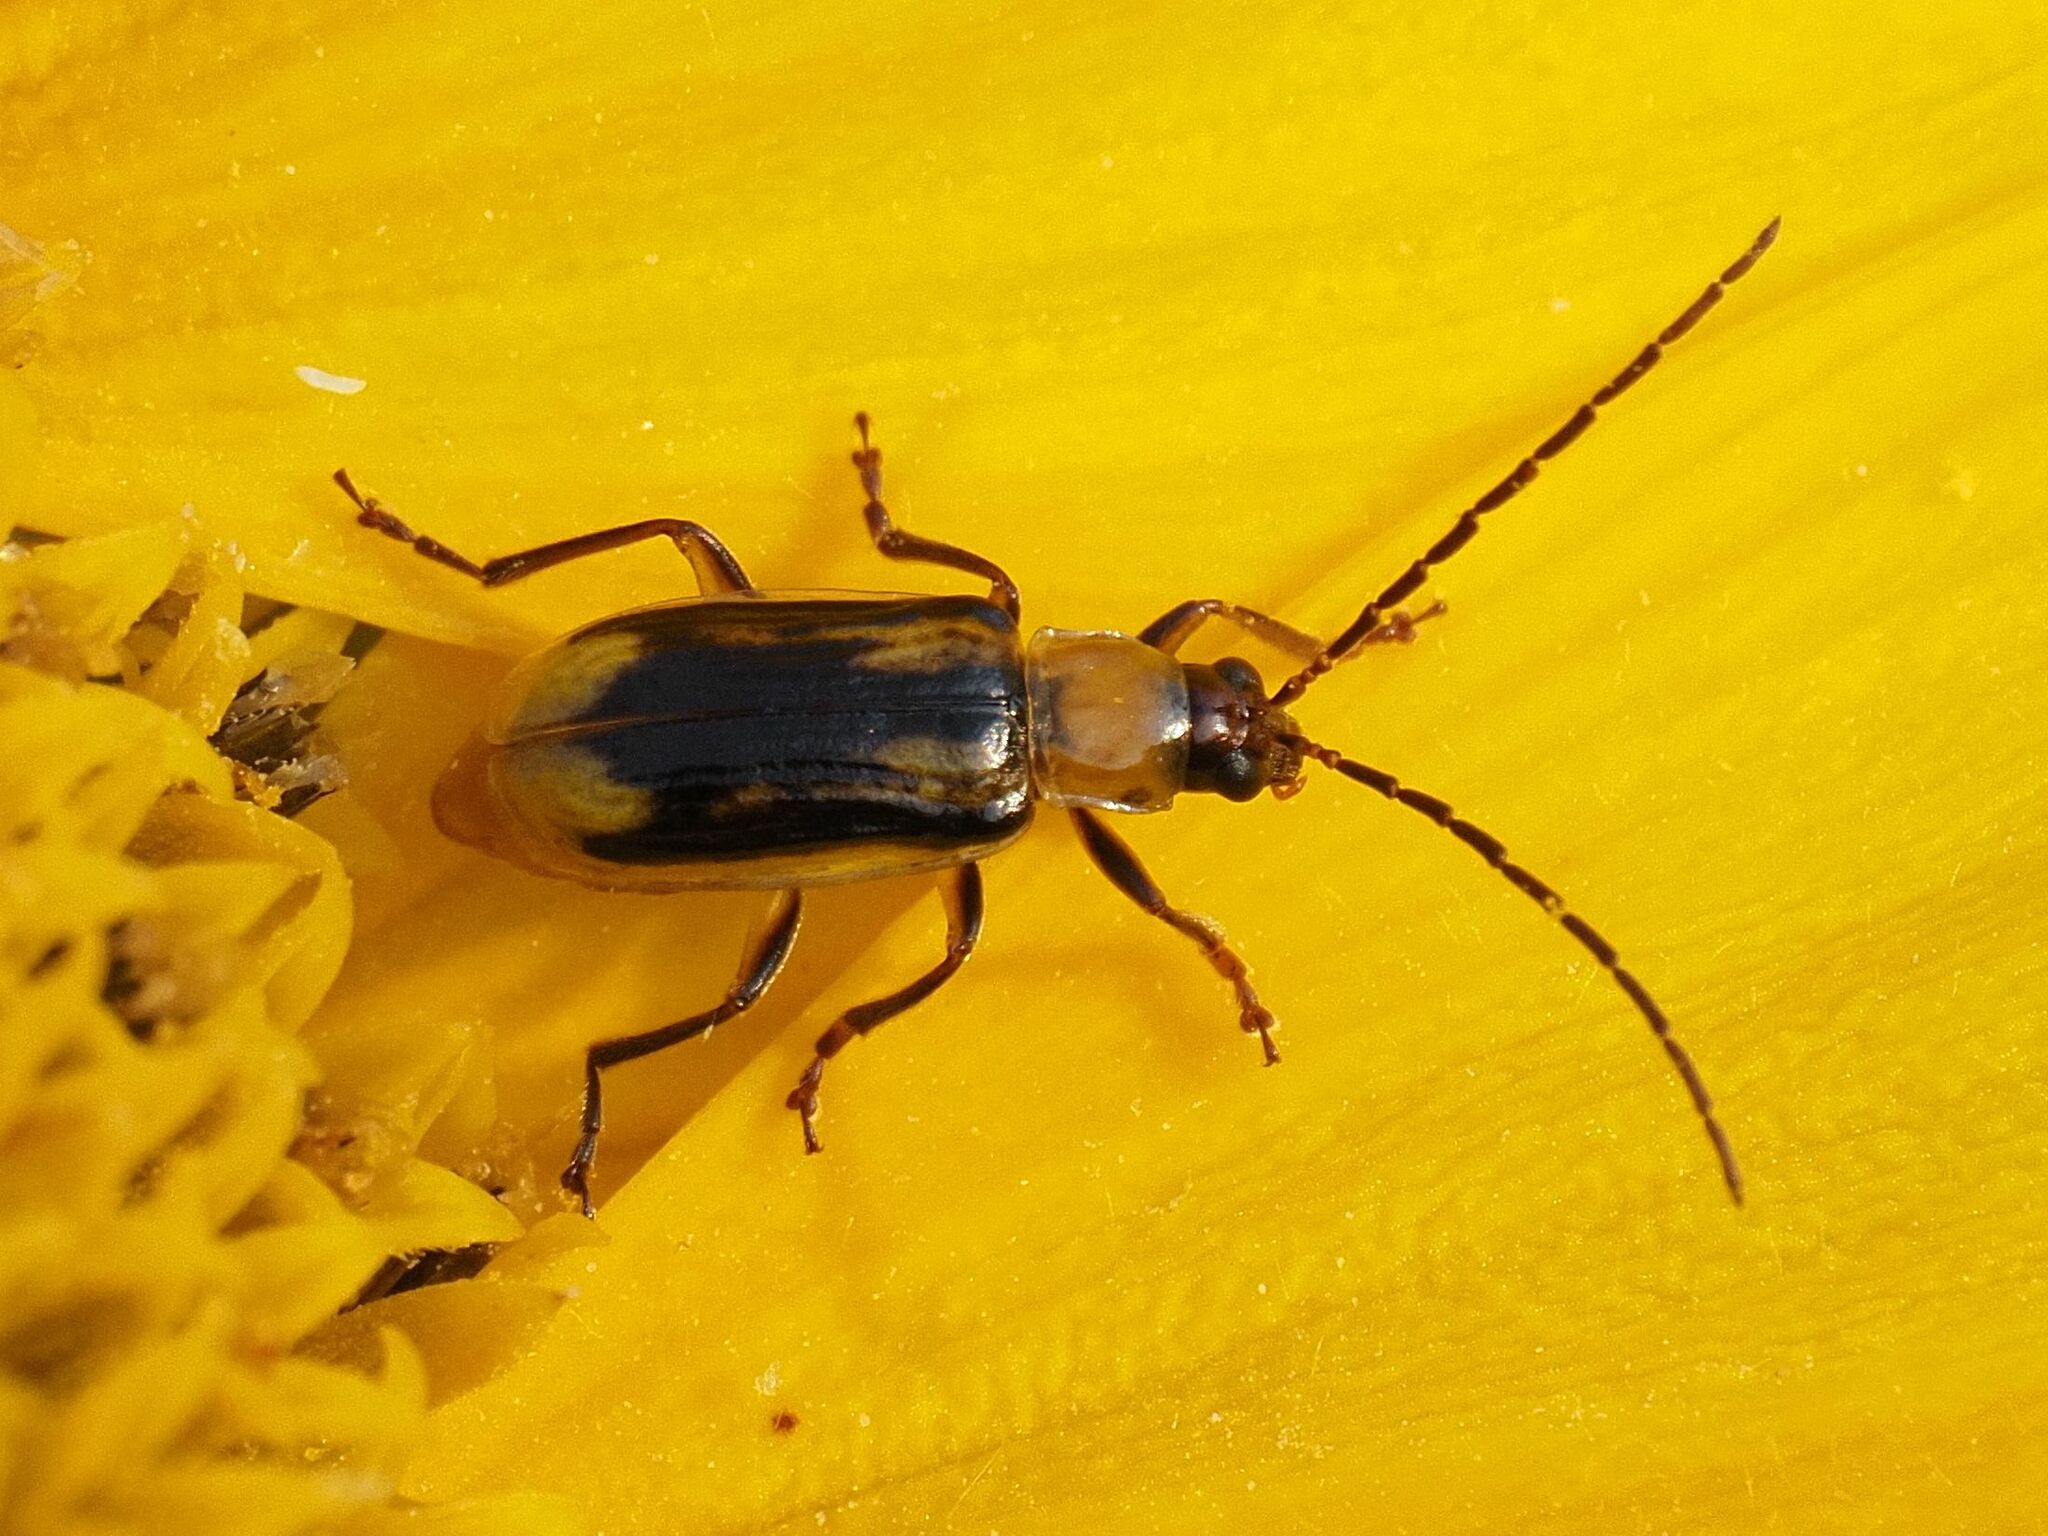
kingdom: Animalia
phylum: Arthropoda
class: Insecta
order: Coleoptera
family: Chrysomelidae
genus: Diabrotica
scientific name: Diabrotica virgifera
